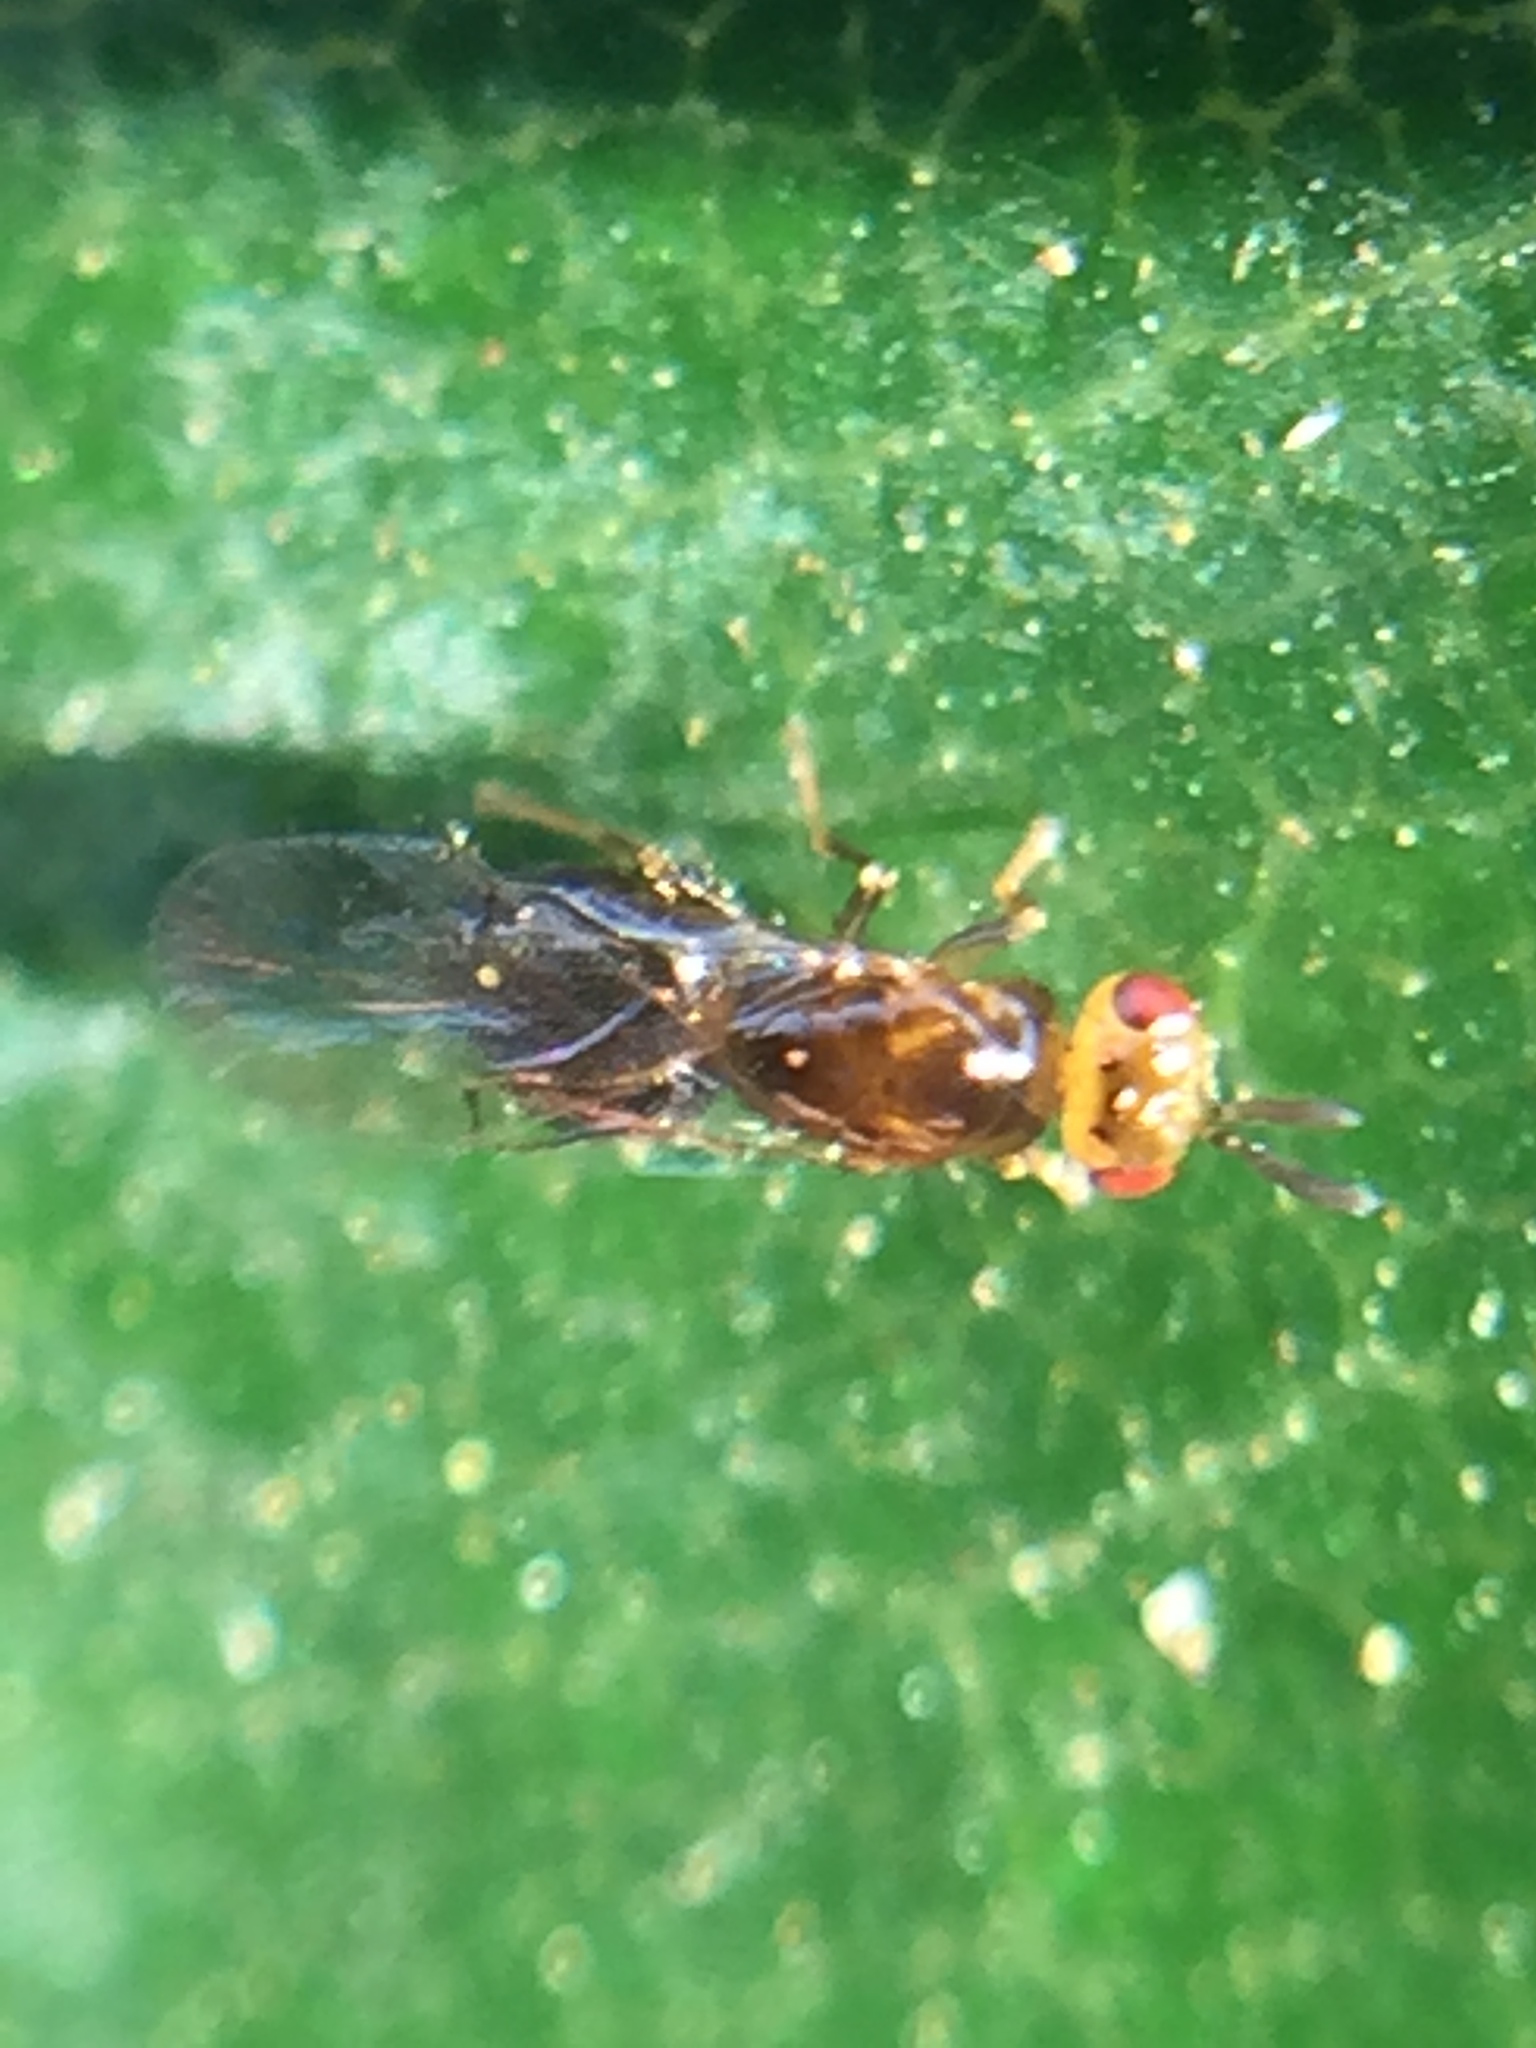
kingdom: Animalia
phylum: Arthropoda
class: Insecta
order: Hymenoptera
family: Agaonidae
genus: Herodotia
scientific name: Herodotia subatriventris
